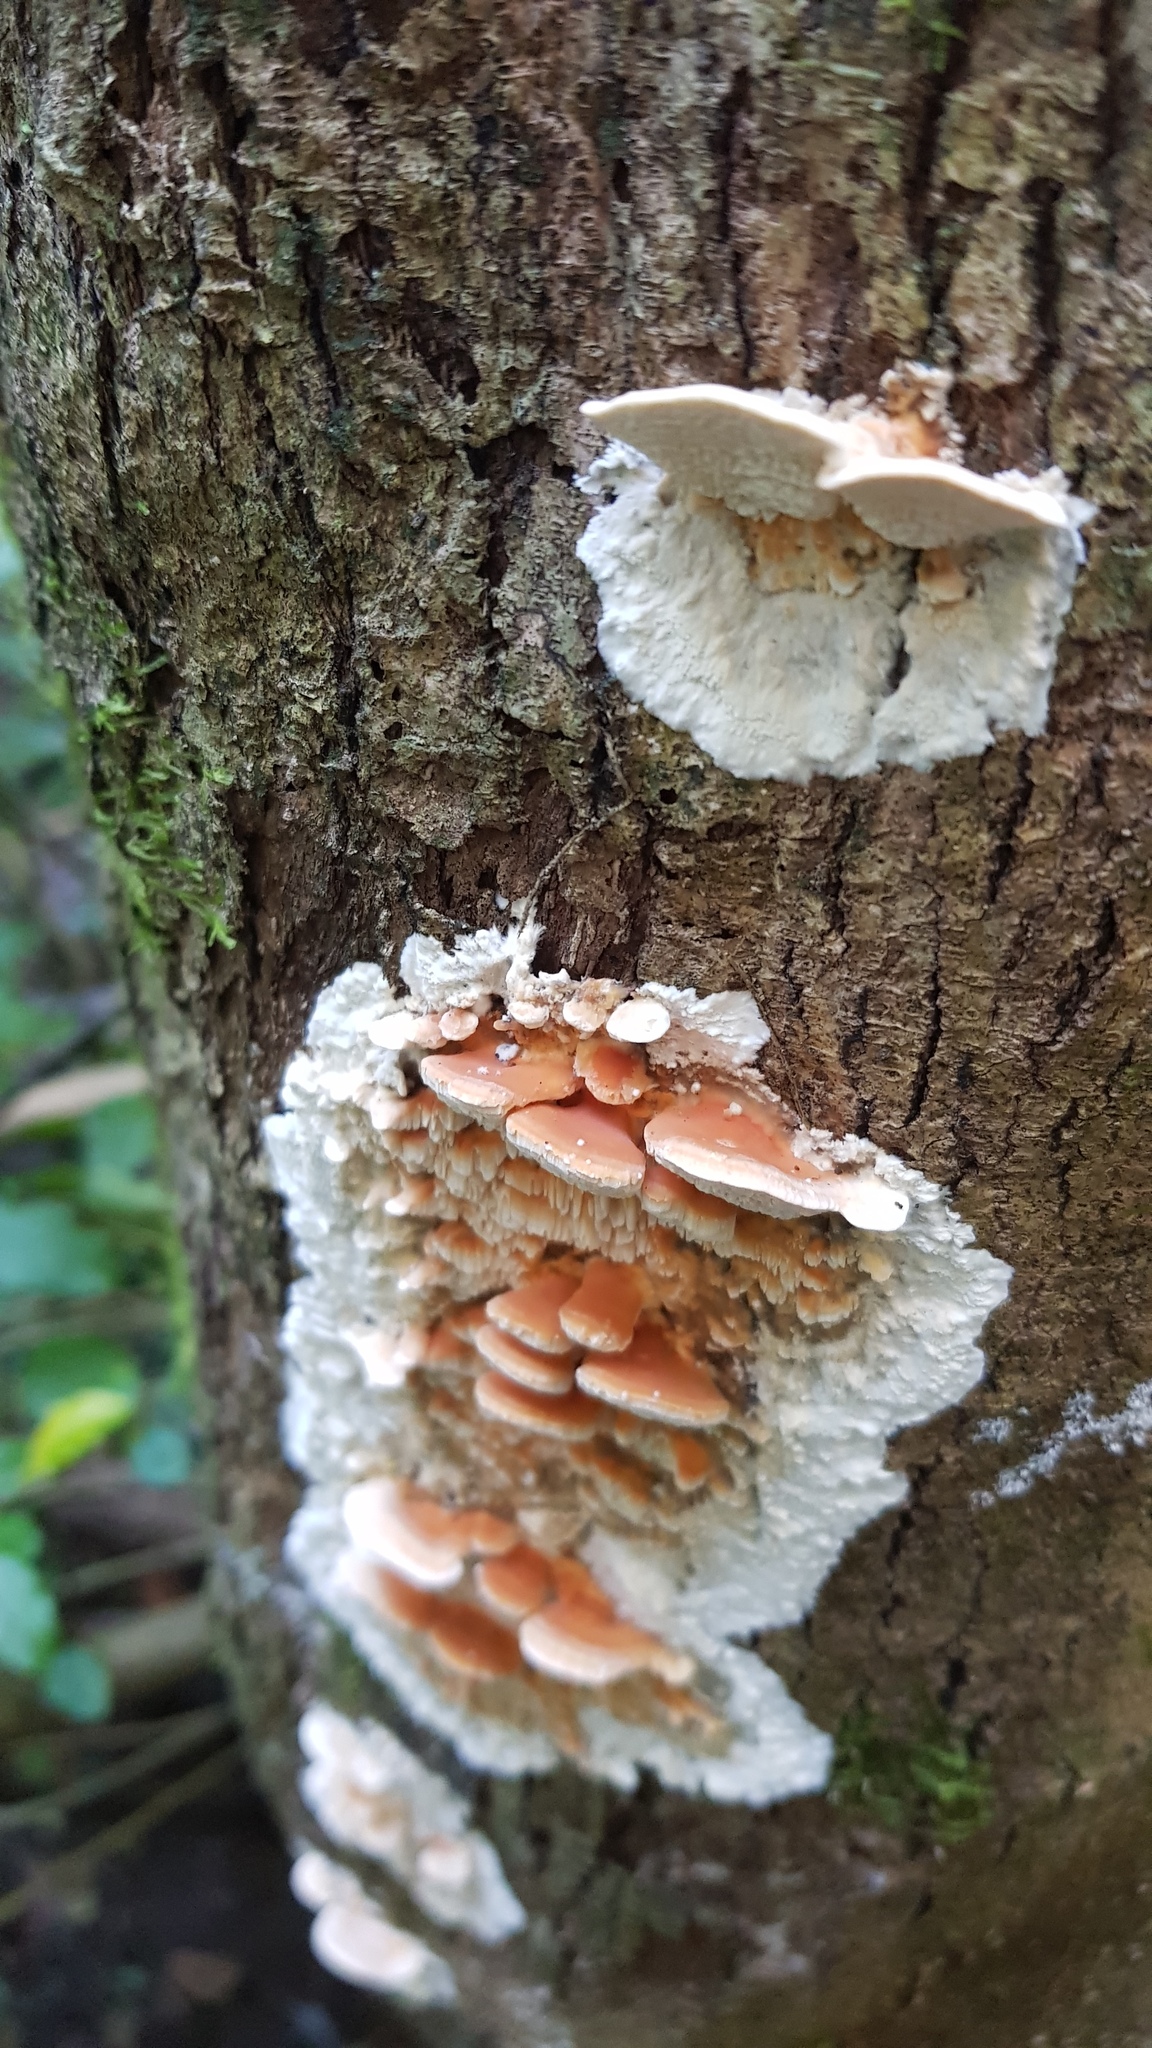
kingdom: Fungi
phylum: Basidiomycota
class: Agaricomycetes
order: Polyporales
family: Cerrenaceae
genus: Cerrena
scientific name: Cerrena zonata
